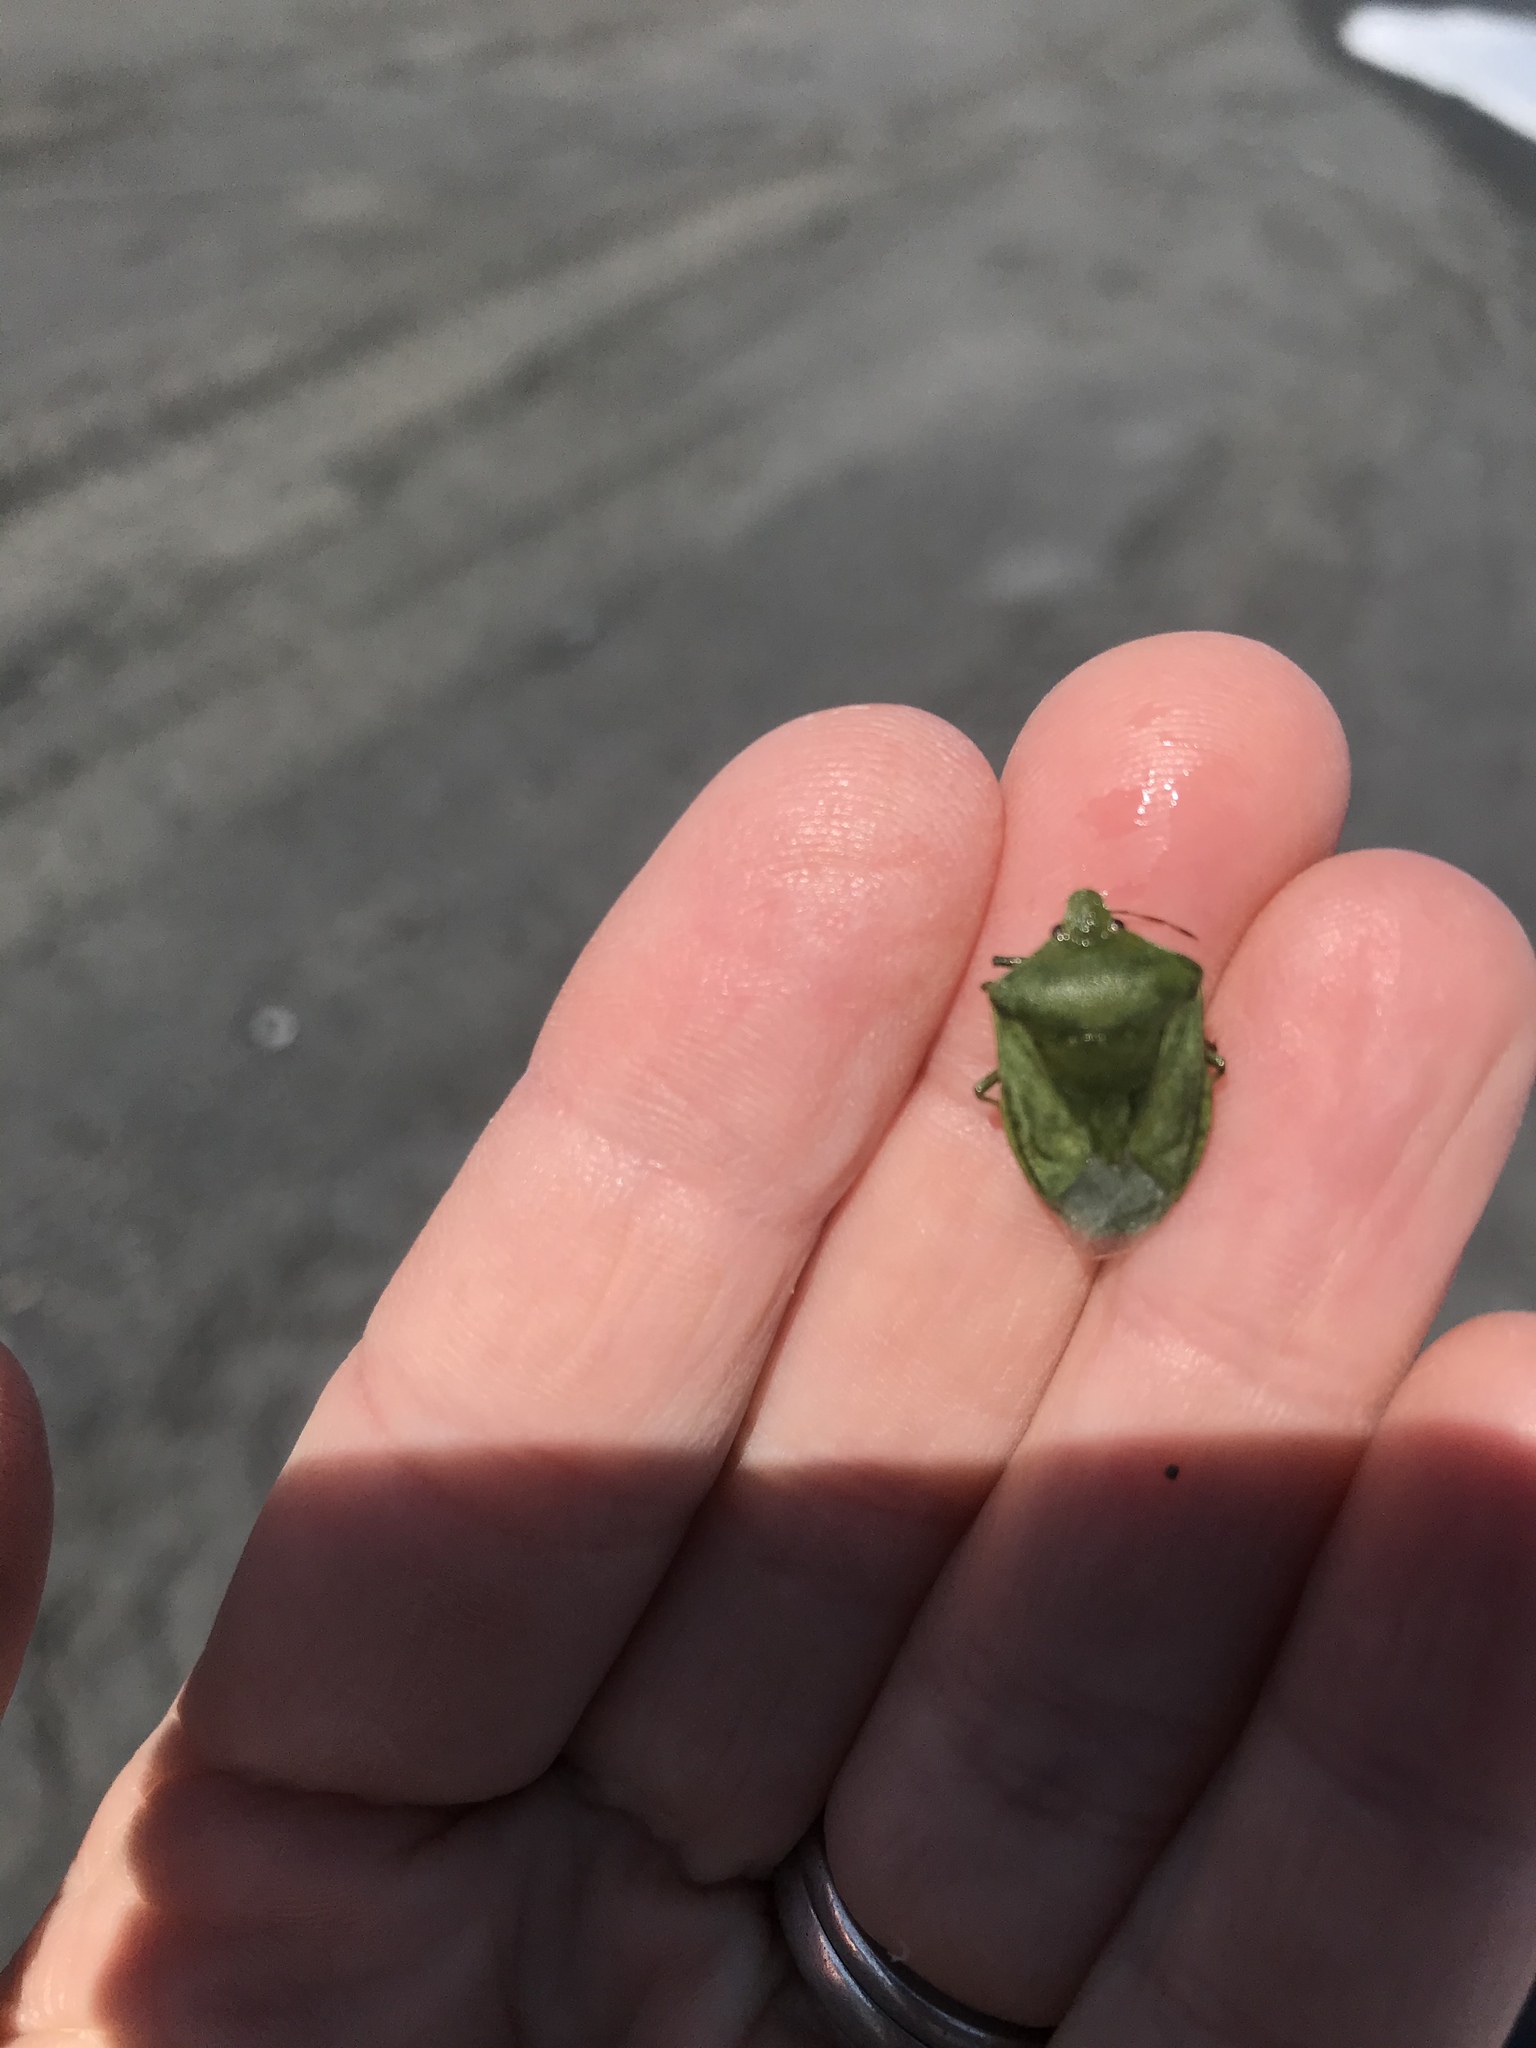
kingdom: Animalia
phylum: Arthropoda
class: Insecta
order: Hemiptera
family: Pentatomidae
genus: Nezara
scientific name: Nezara viridula
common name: Southern green stink bug
